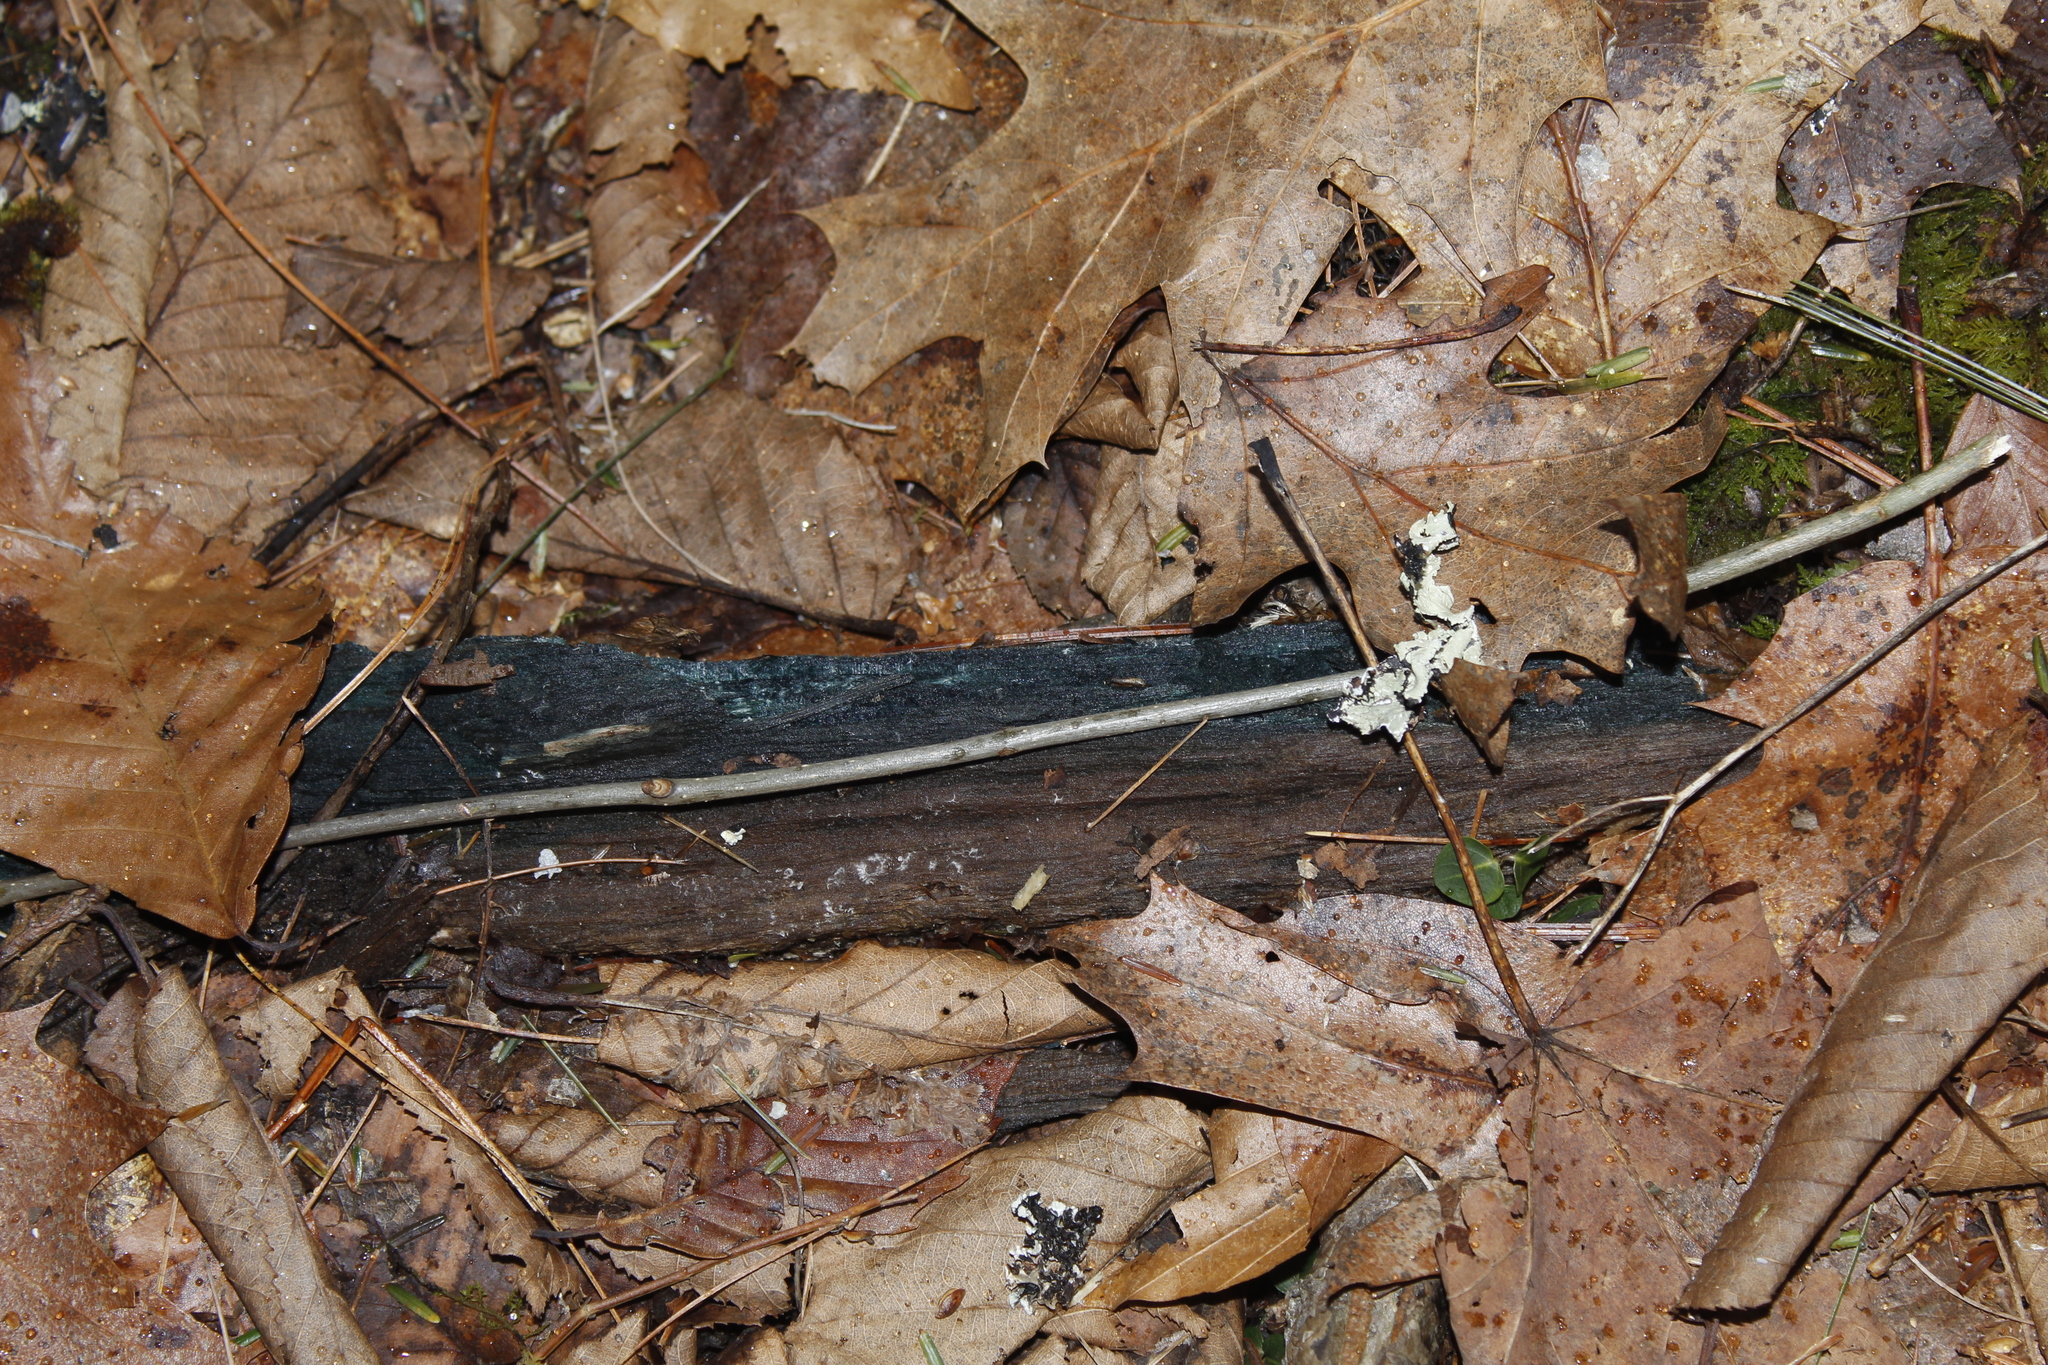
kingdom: Fungi
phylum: Ascomycota
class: Leotiomycetes
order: Helotiales
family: Chlorociboriaceae
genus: Chlorociboria
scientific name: Chlorociboria
